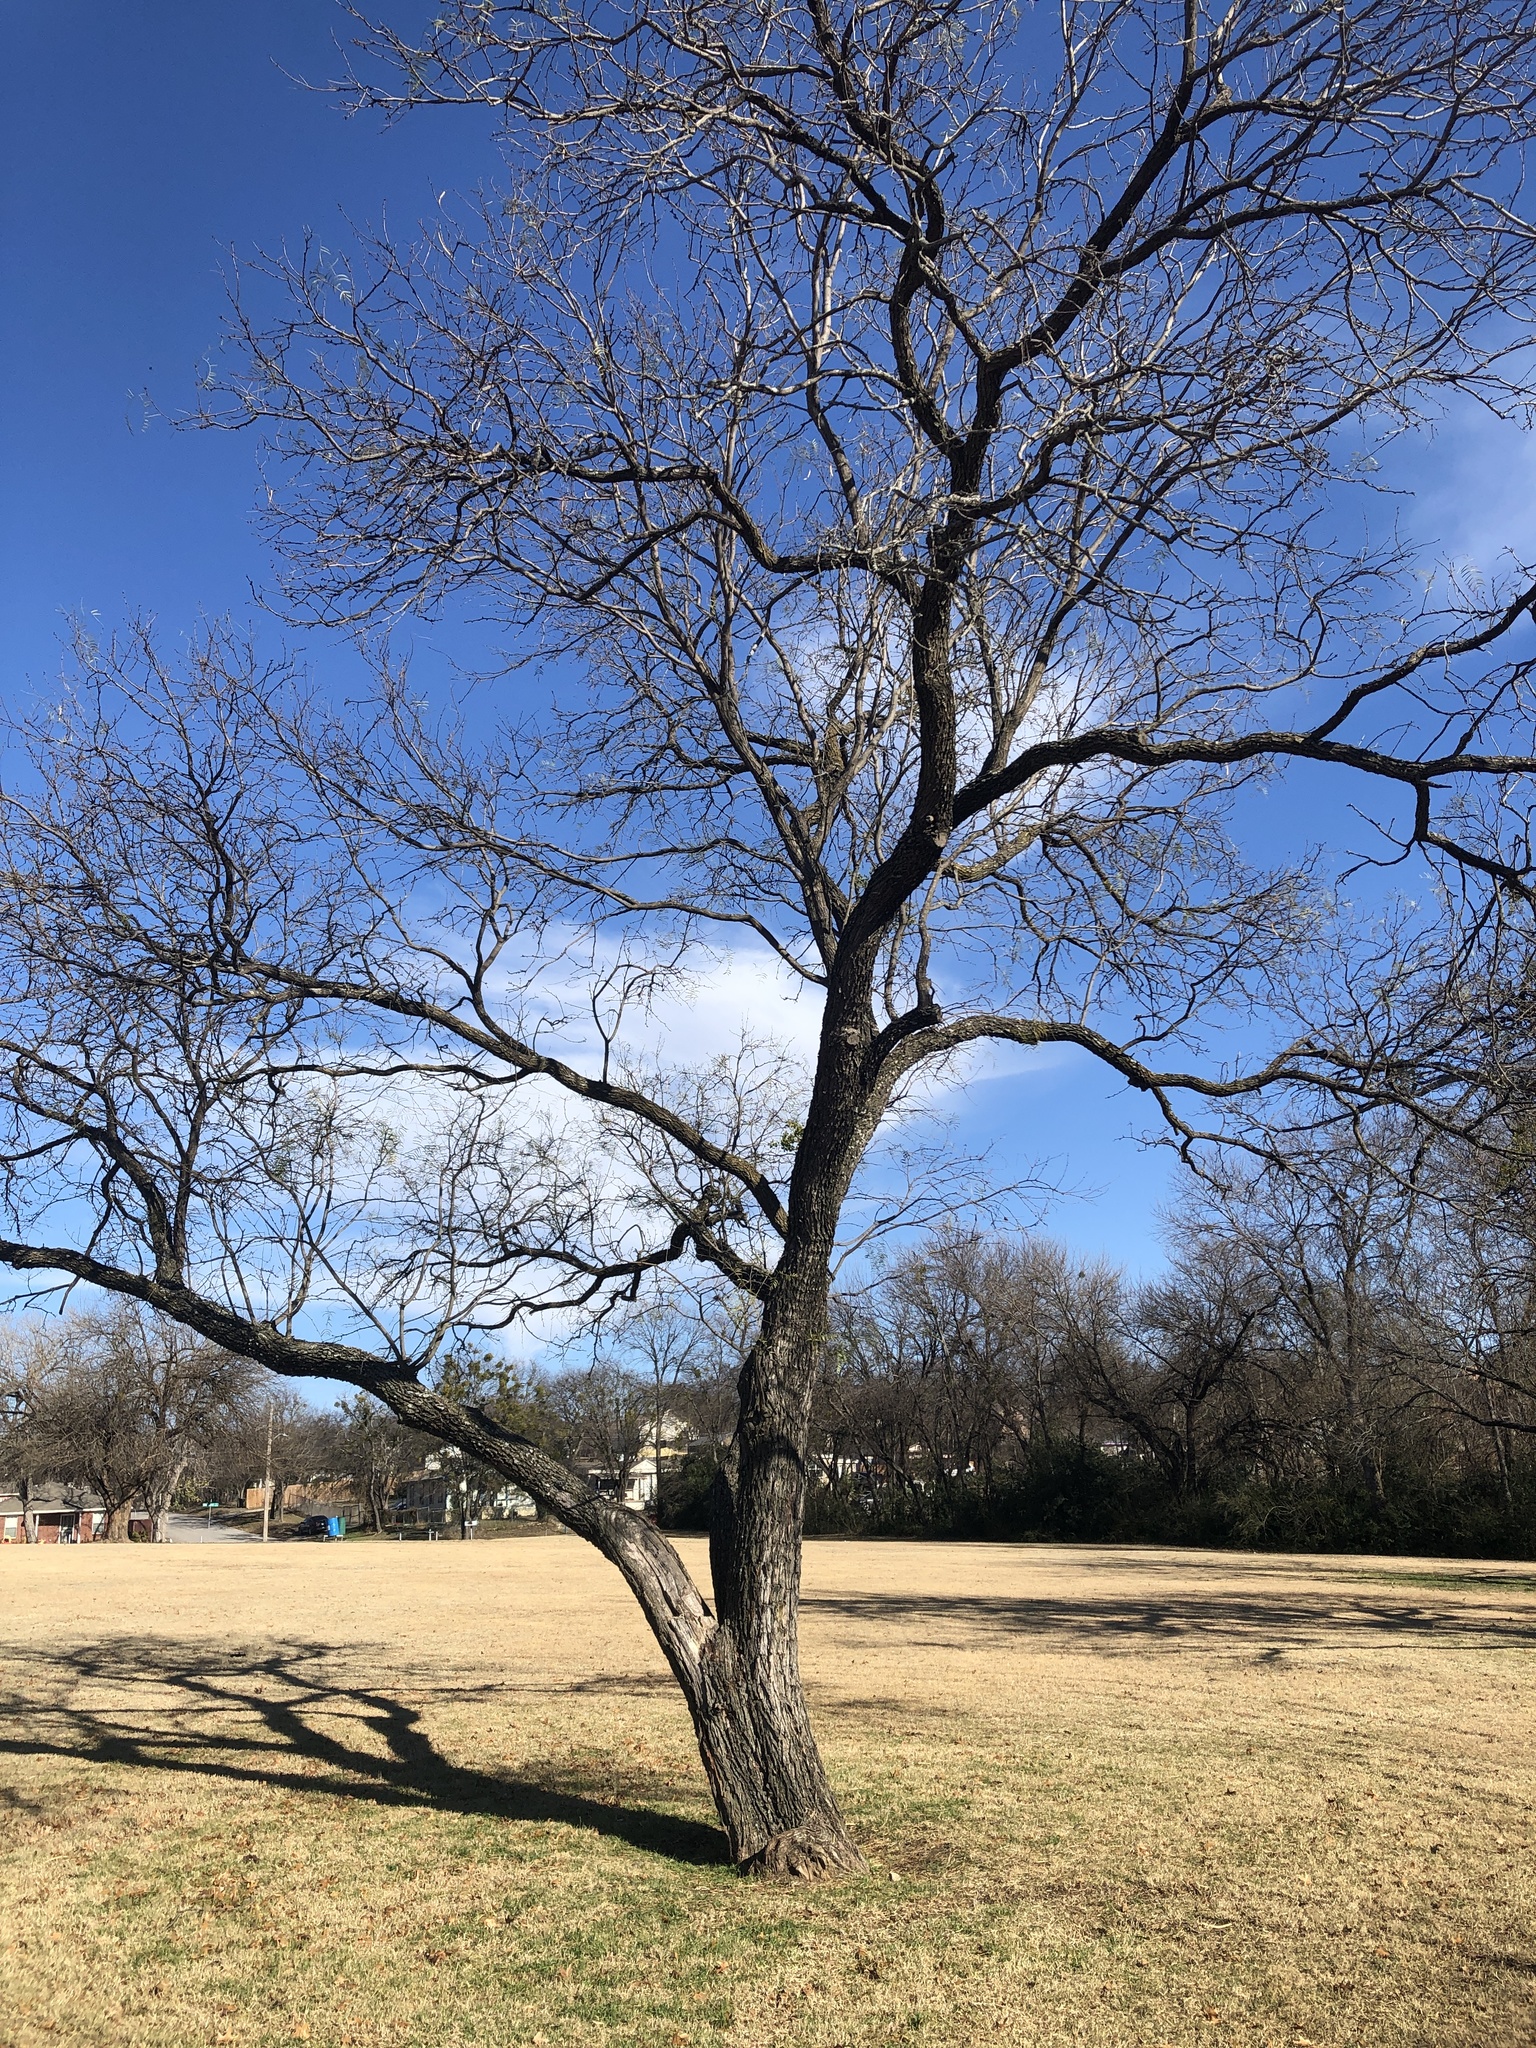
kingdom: Plantae
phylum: Tracheophyta
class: Magnoliopsida
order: Fabales
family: Fabaceae
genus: Prosopis
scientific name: Prosopis glandulosa
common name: Honey mesquite
